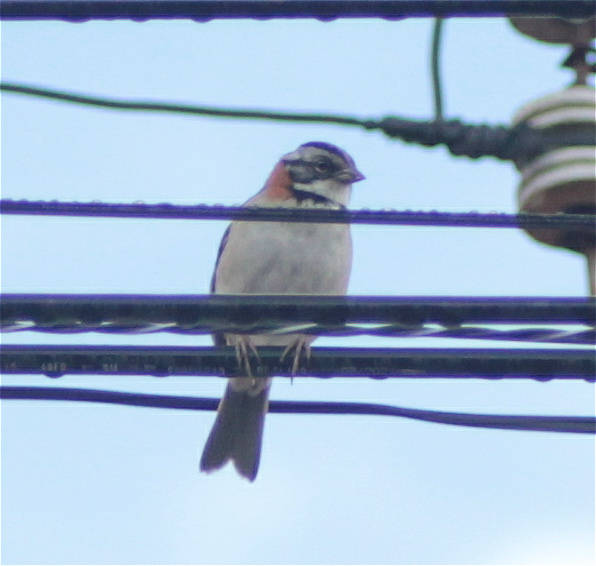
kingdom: Animalia
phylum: Chordata
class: Aves
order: Passeriformes
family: Passerellidae
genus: Zonotrichia
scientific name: Zonotrichia capensis
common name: Rufous-collared sparrow
